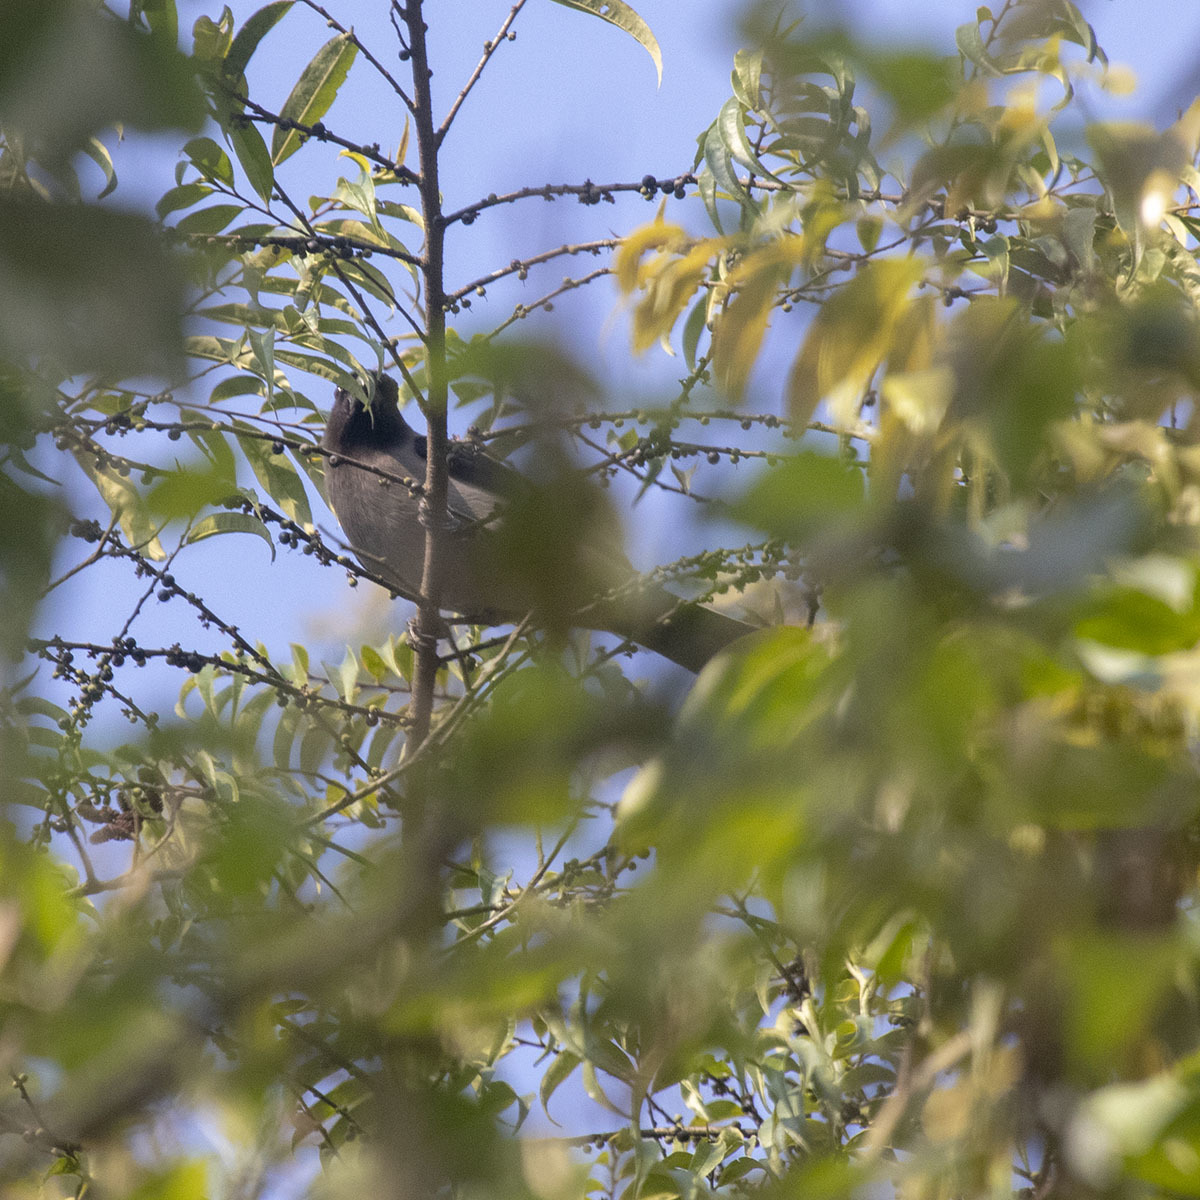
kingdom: Animalia
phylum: Chordata
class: Aves
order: Passeriformes
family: Corvidae
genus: Dendrocitta
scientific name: Dendrocitta formosae
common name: Grey treepie
